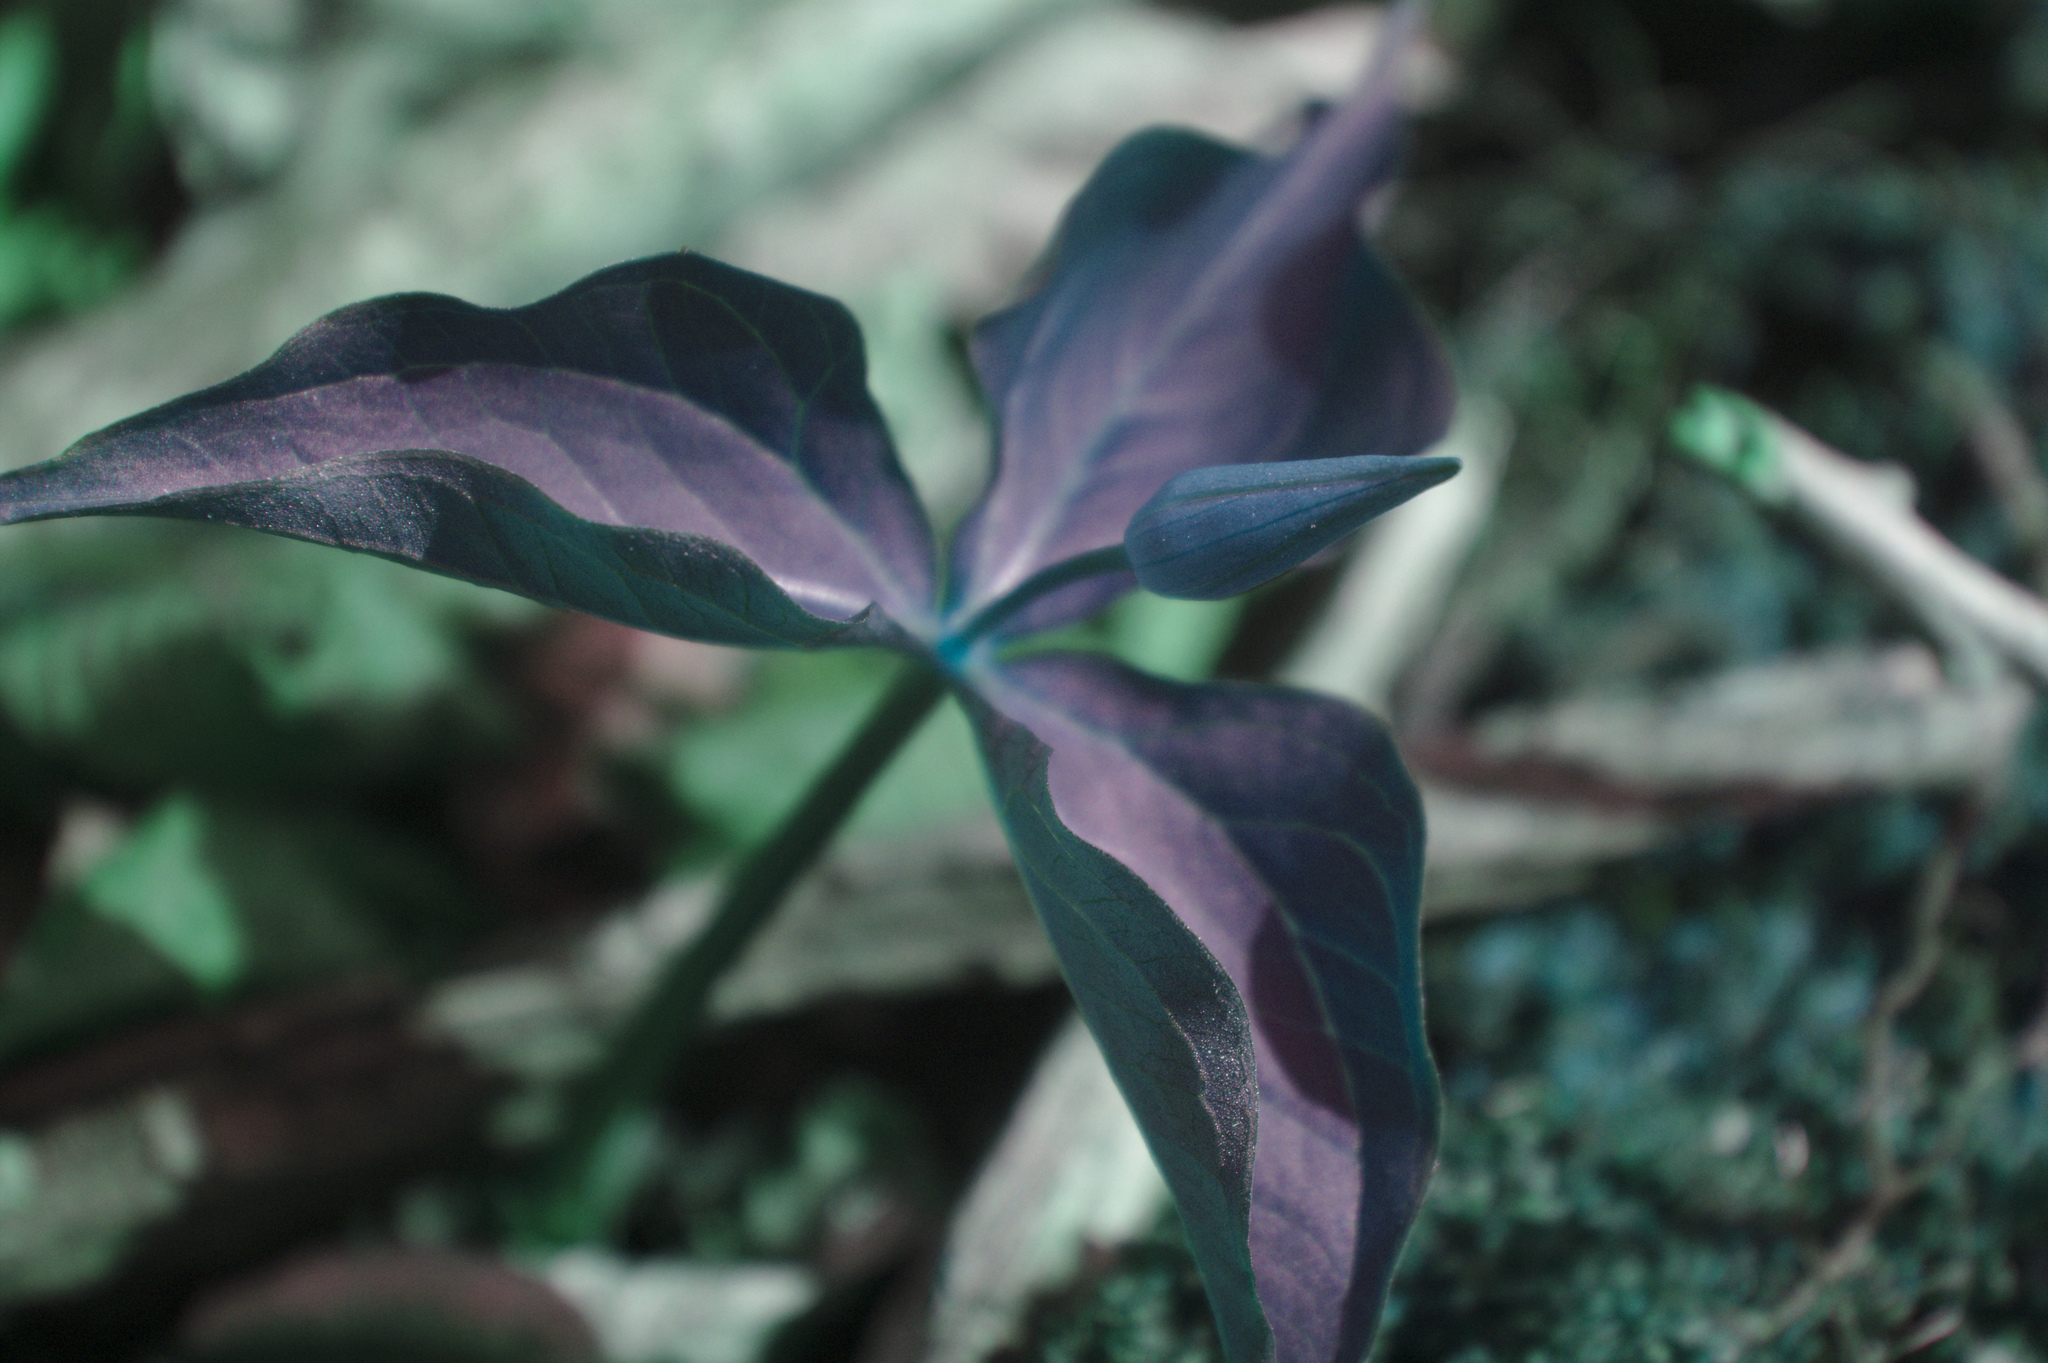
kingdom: Plantae
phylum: Tracheophyta
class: Liliopsida
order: Liliales
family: Melanthiaceae
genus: Trillium
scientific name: Trillium erectum
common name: Purple trillium
